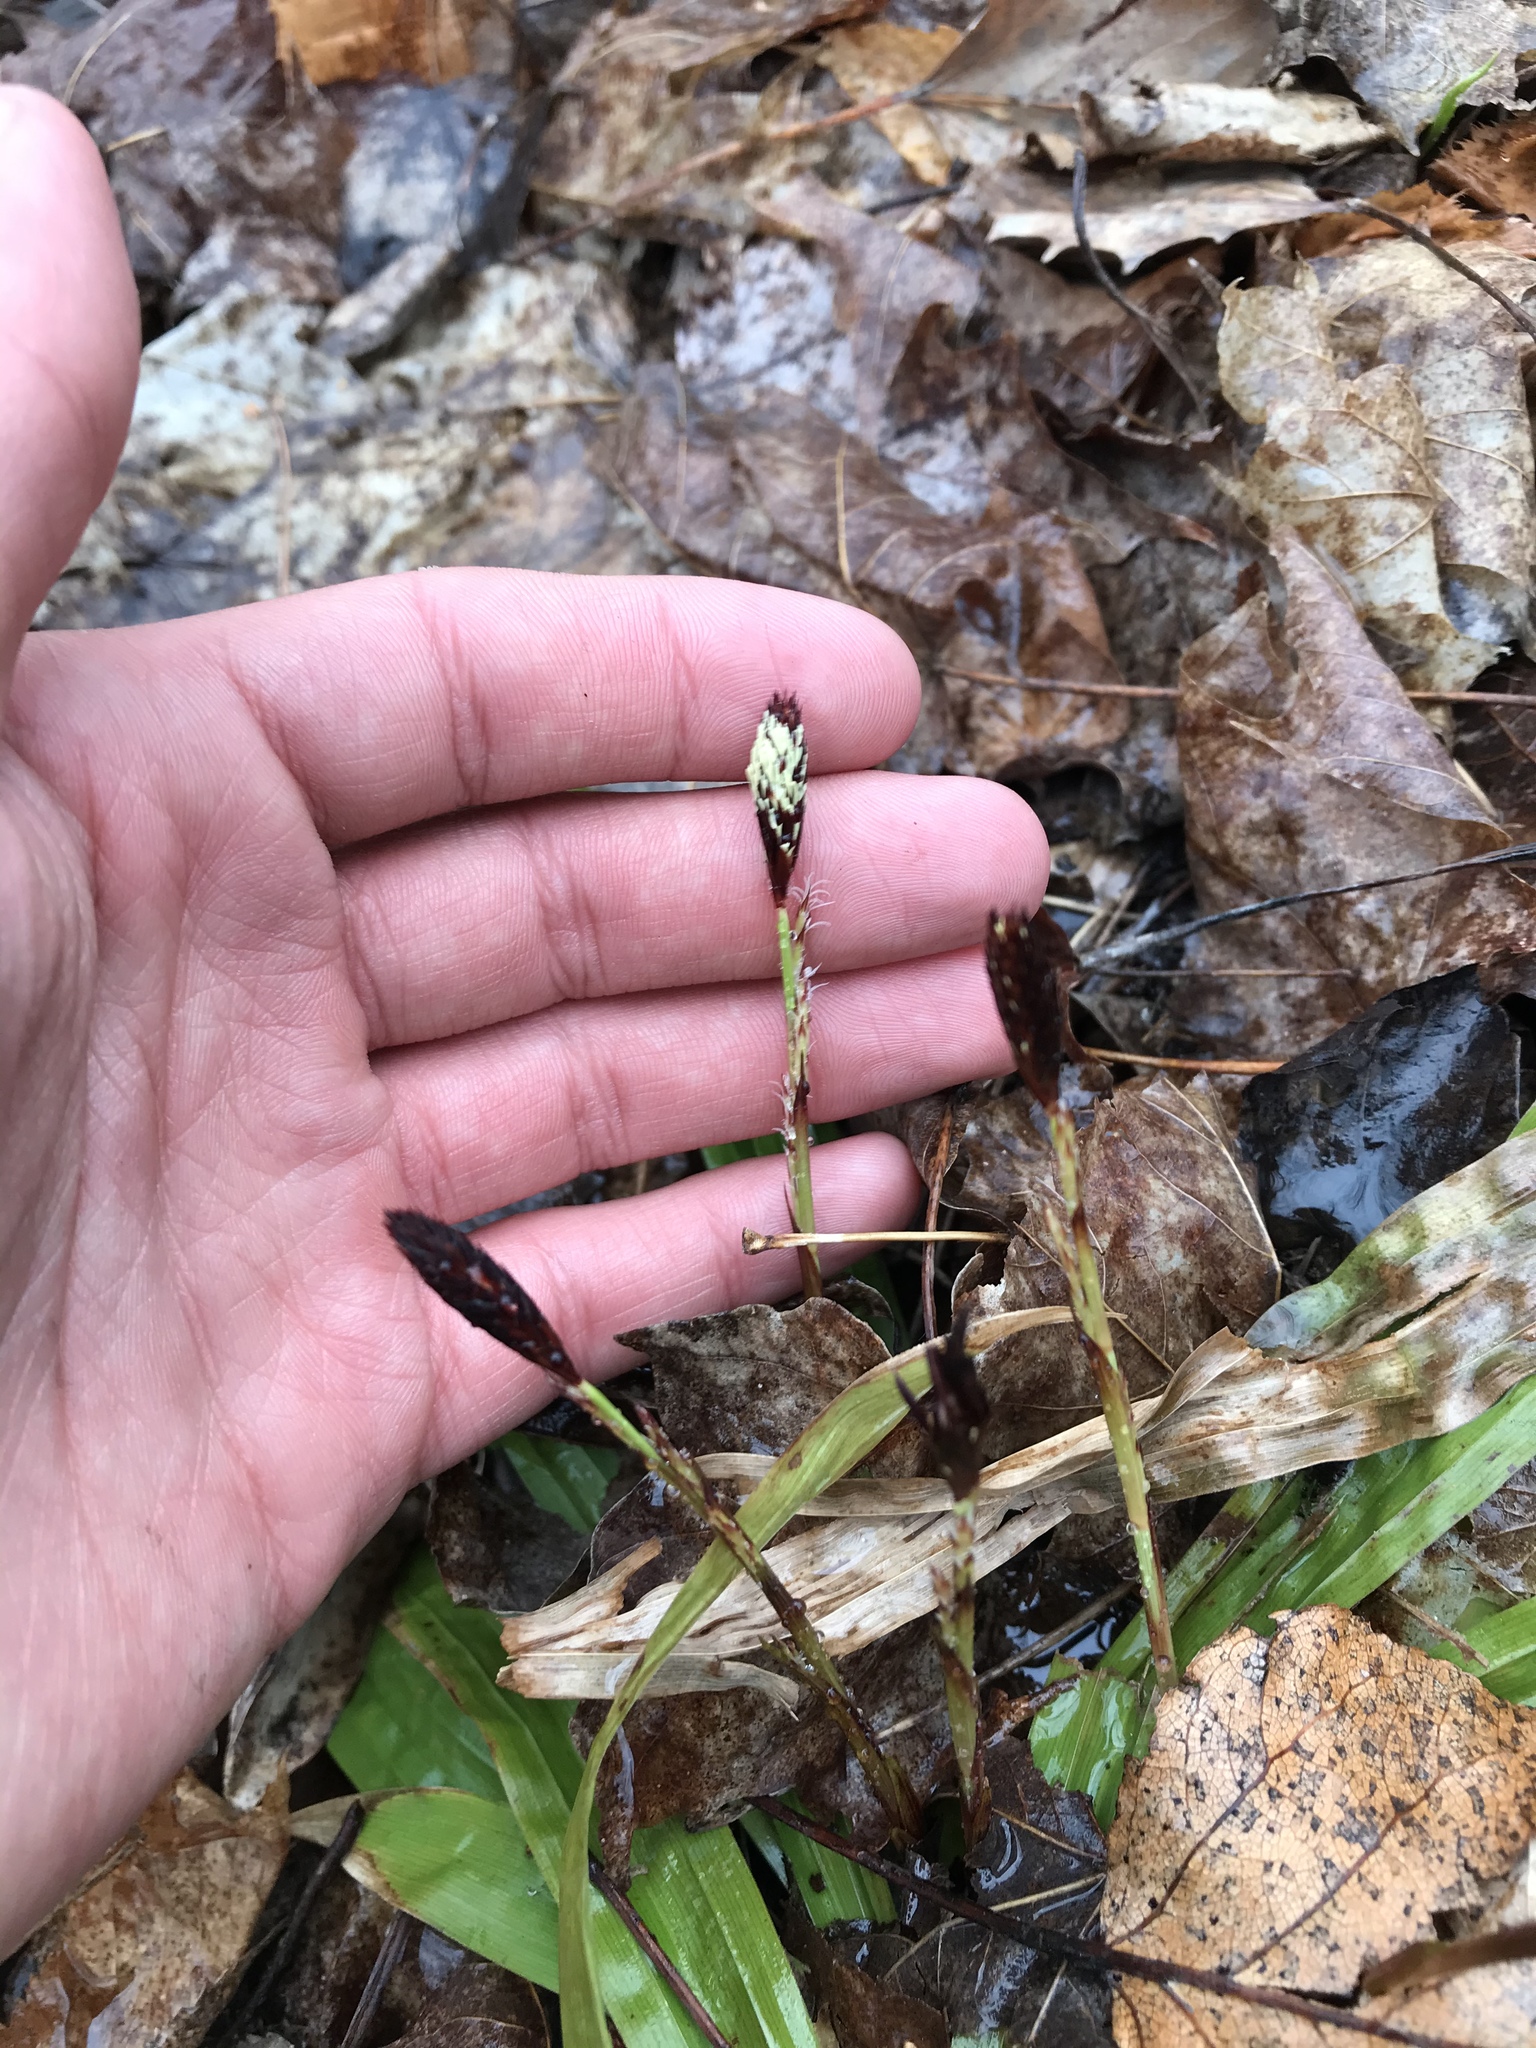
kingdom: Plantae
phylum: Tracheophyta
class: Liliopsida
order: Poales
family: Cyperaceae
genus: Carex
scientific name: Carex plantaginea
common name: Plantain-leaved sedge
